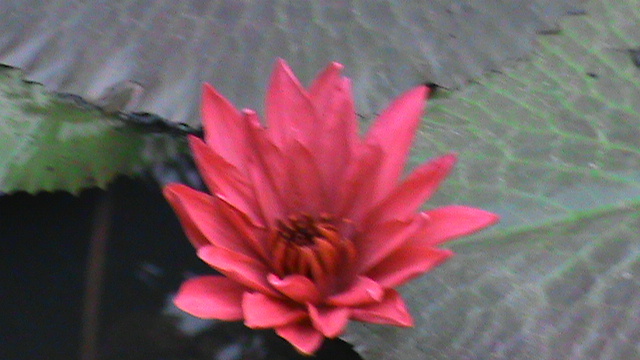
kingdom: Plantae
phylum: Tracheophyta
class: Magnoliopsida
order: Nymphaeales
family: Nymphaeaceae
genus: Nymphaea
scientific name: Nymphaea rubra
